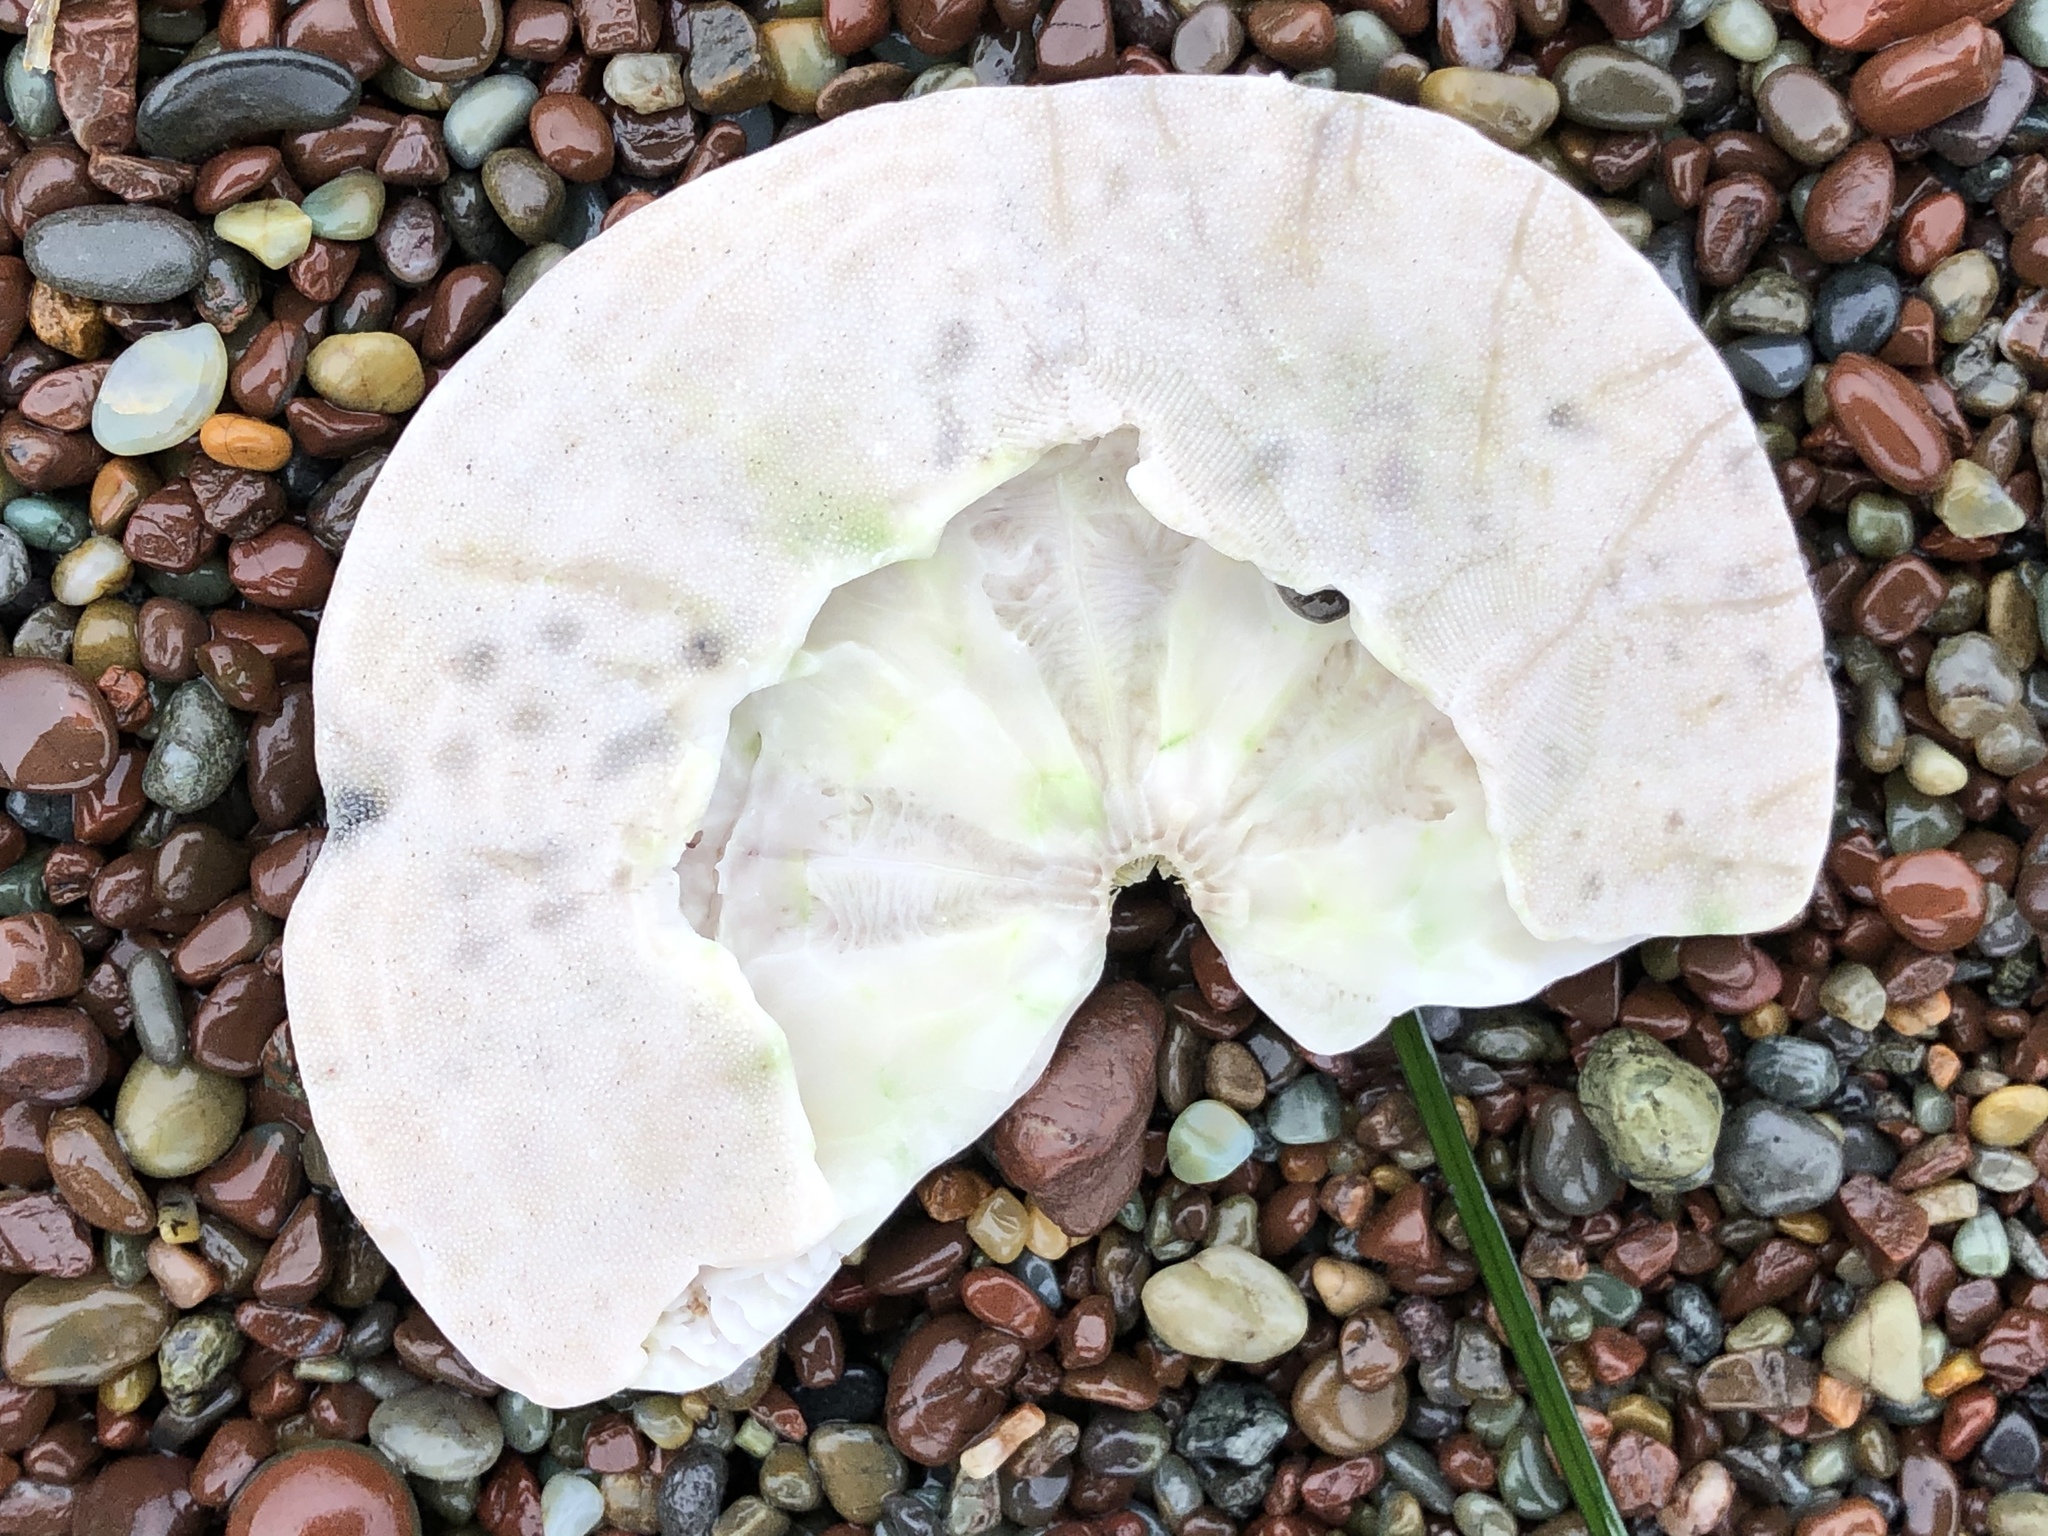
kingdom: Animalia
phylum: Echinodermata
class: Echinoidea
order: Echinolampadacea
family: Dendrasteridae
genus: Dendraster
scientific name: Dendraster excentricus
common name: Eccentric sand dollar sea urchin
